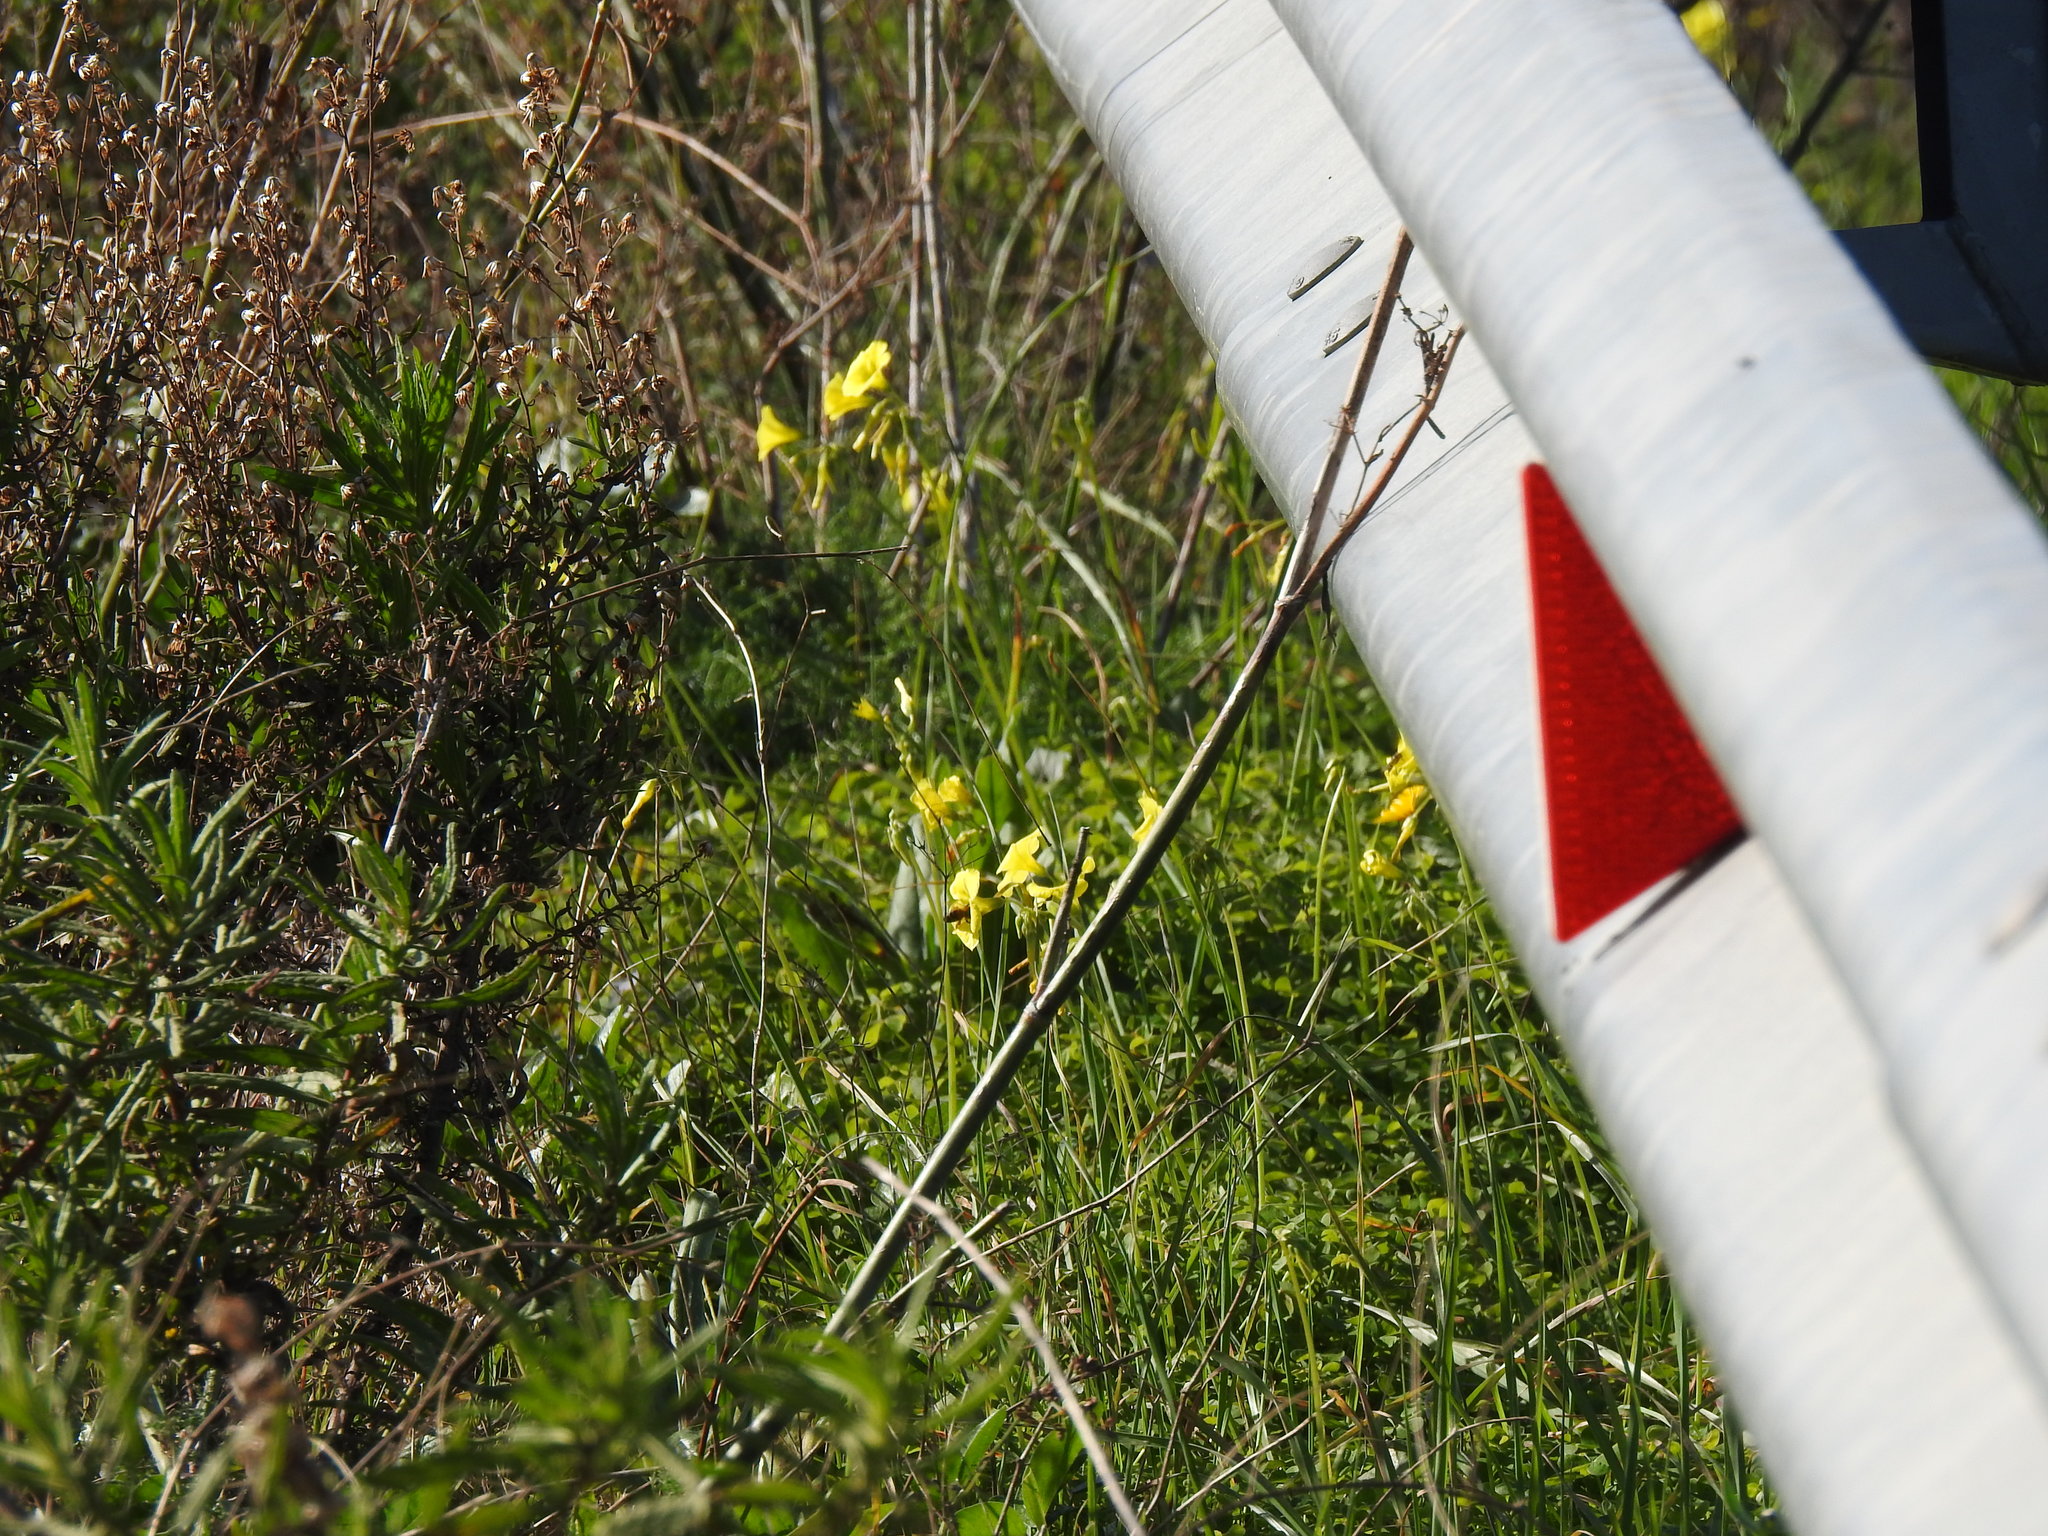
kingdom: Plantae
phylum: Tracheophyta
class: Magnoliopsida
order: Oxalidales
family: Oxalidaceae
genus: Oxalis
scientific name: Oxalis pes-caprae
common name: Bermuda-buttercup
